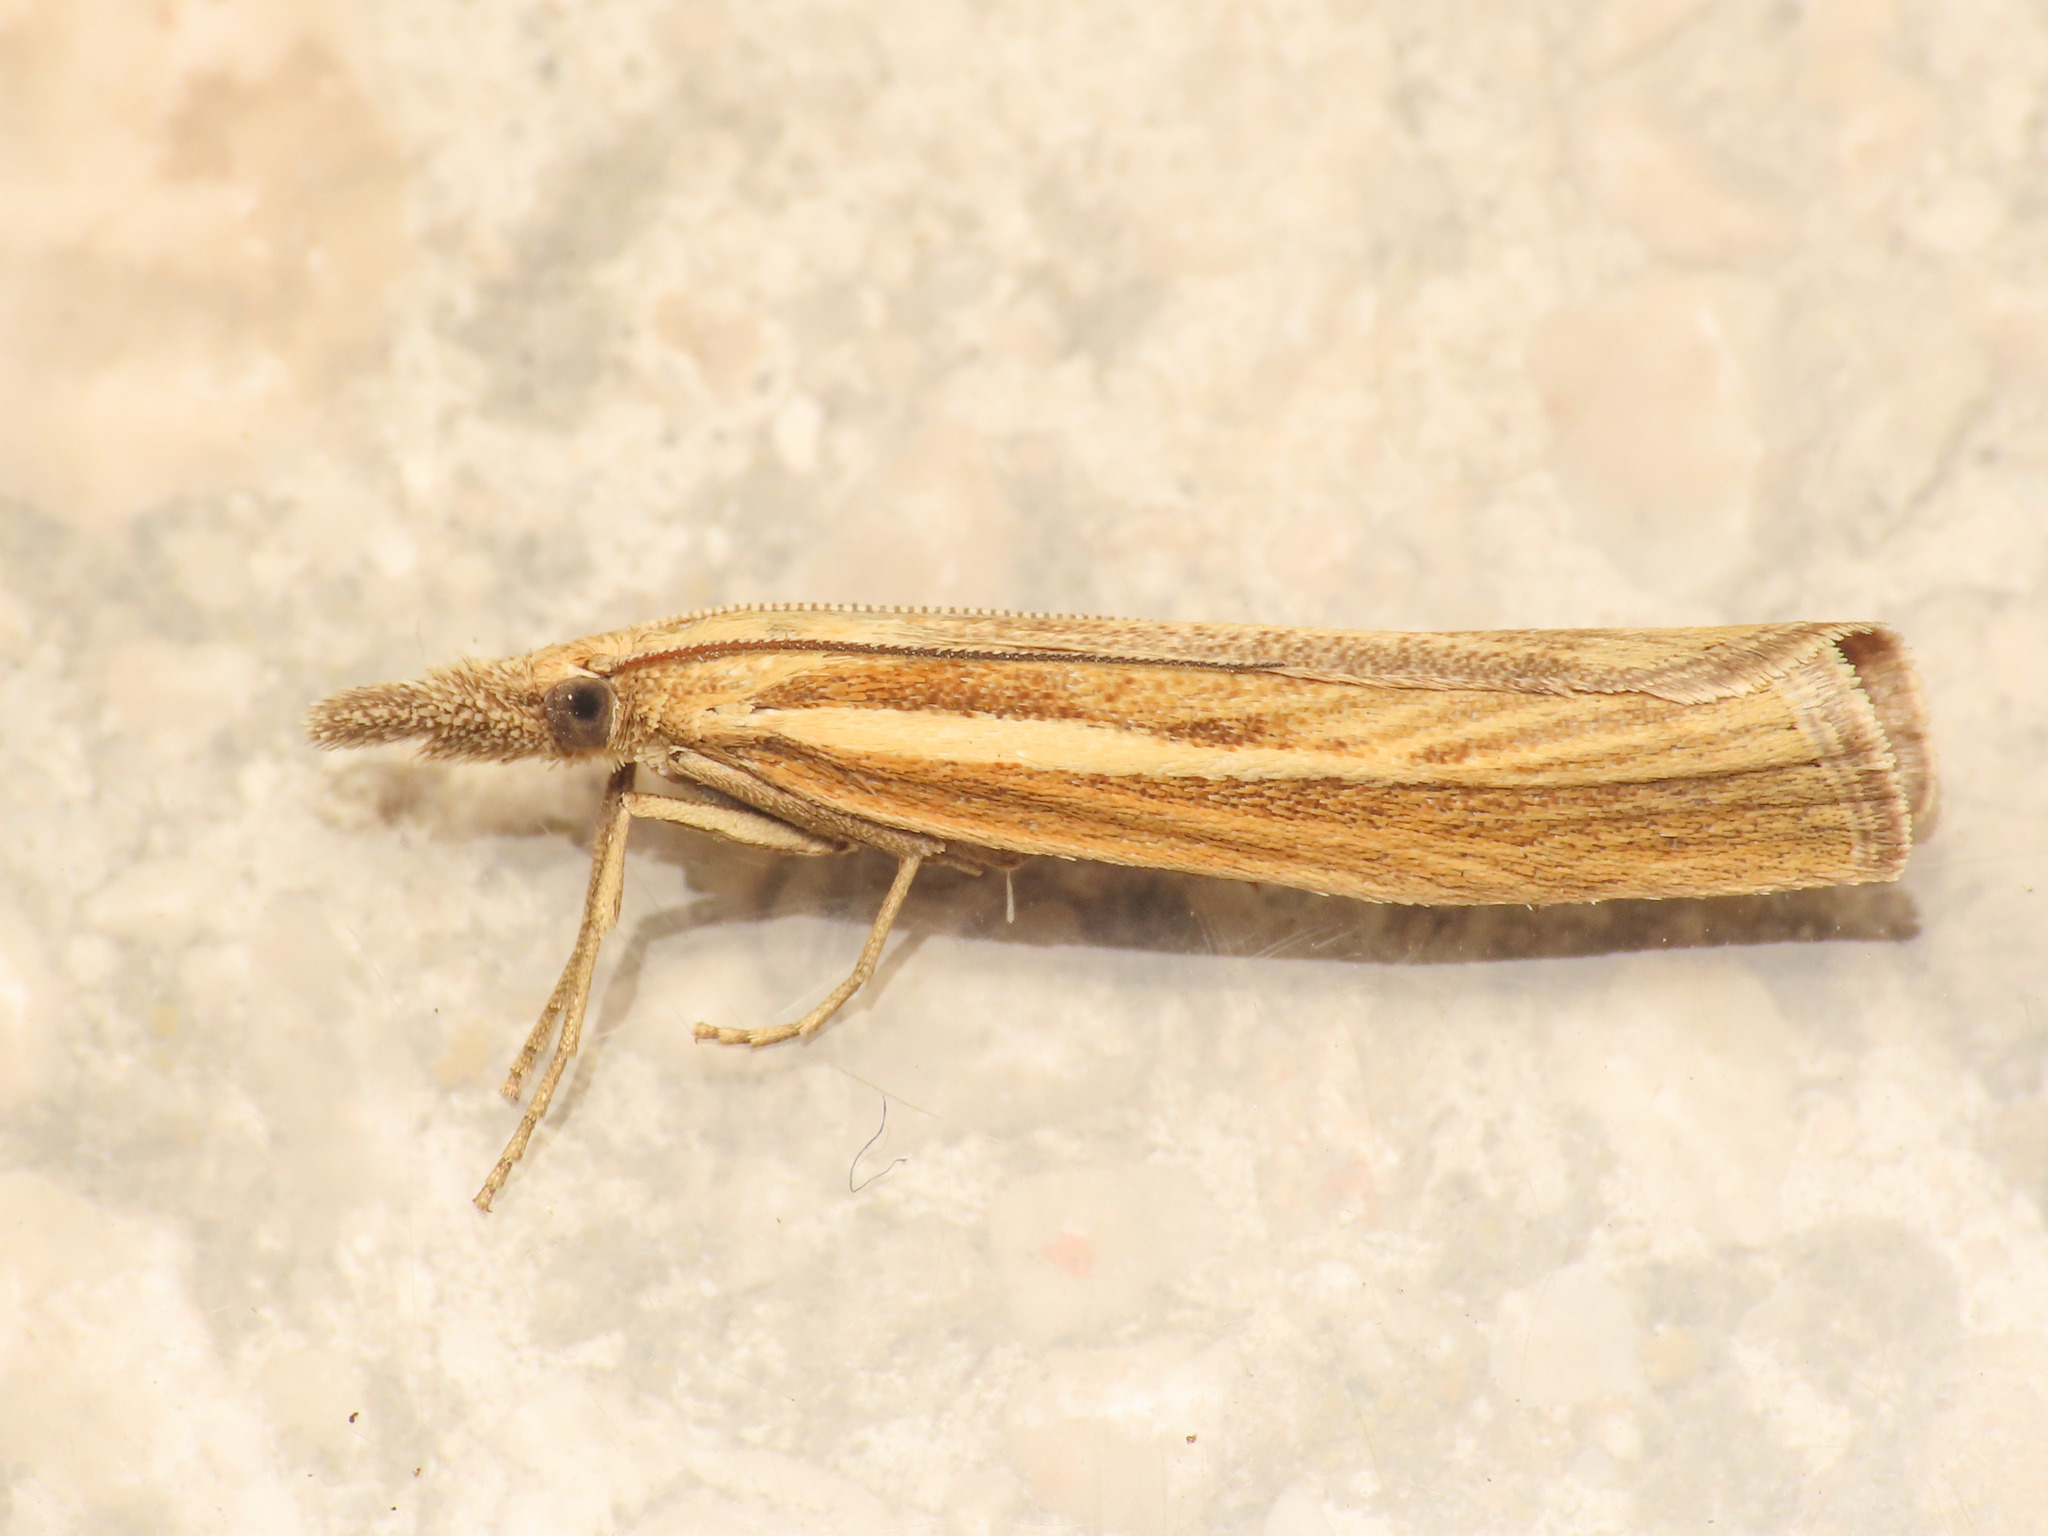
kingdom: Animalia
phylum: Arthropoda
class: Insecta
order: Lepidoptera
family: Crambidae
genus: Agriphila
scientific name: Agriphila tristellus
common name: Common grass-veneer
